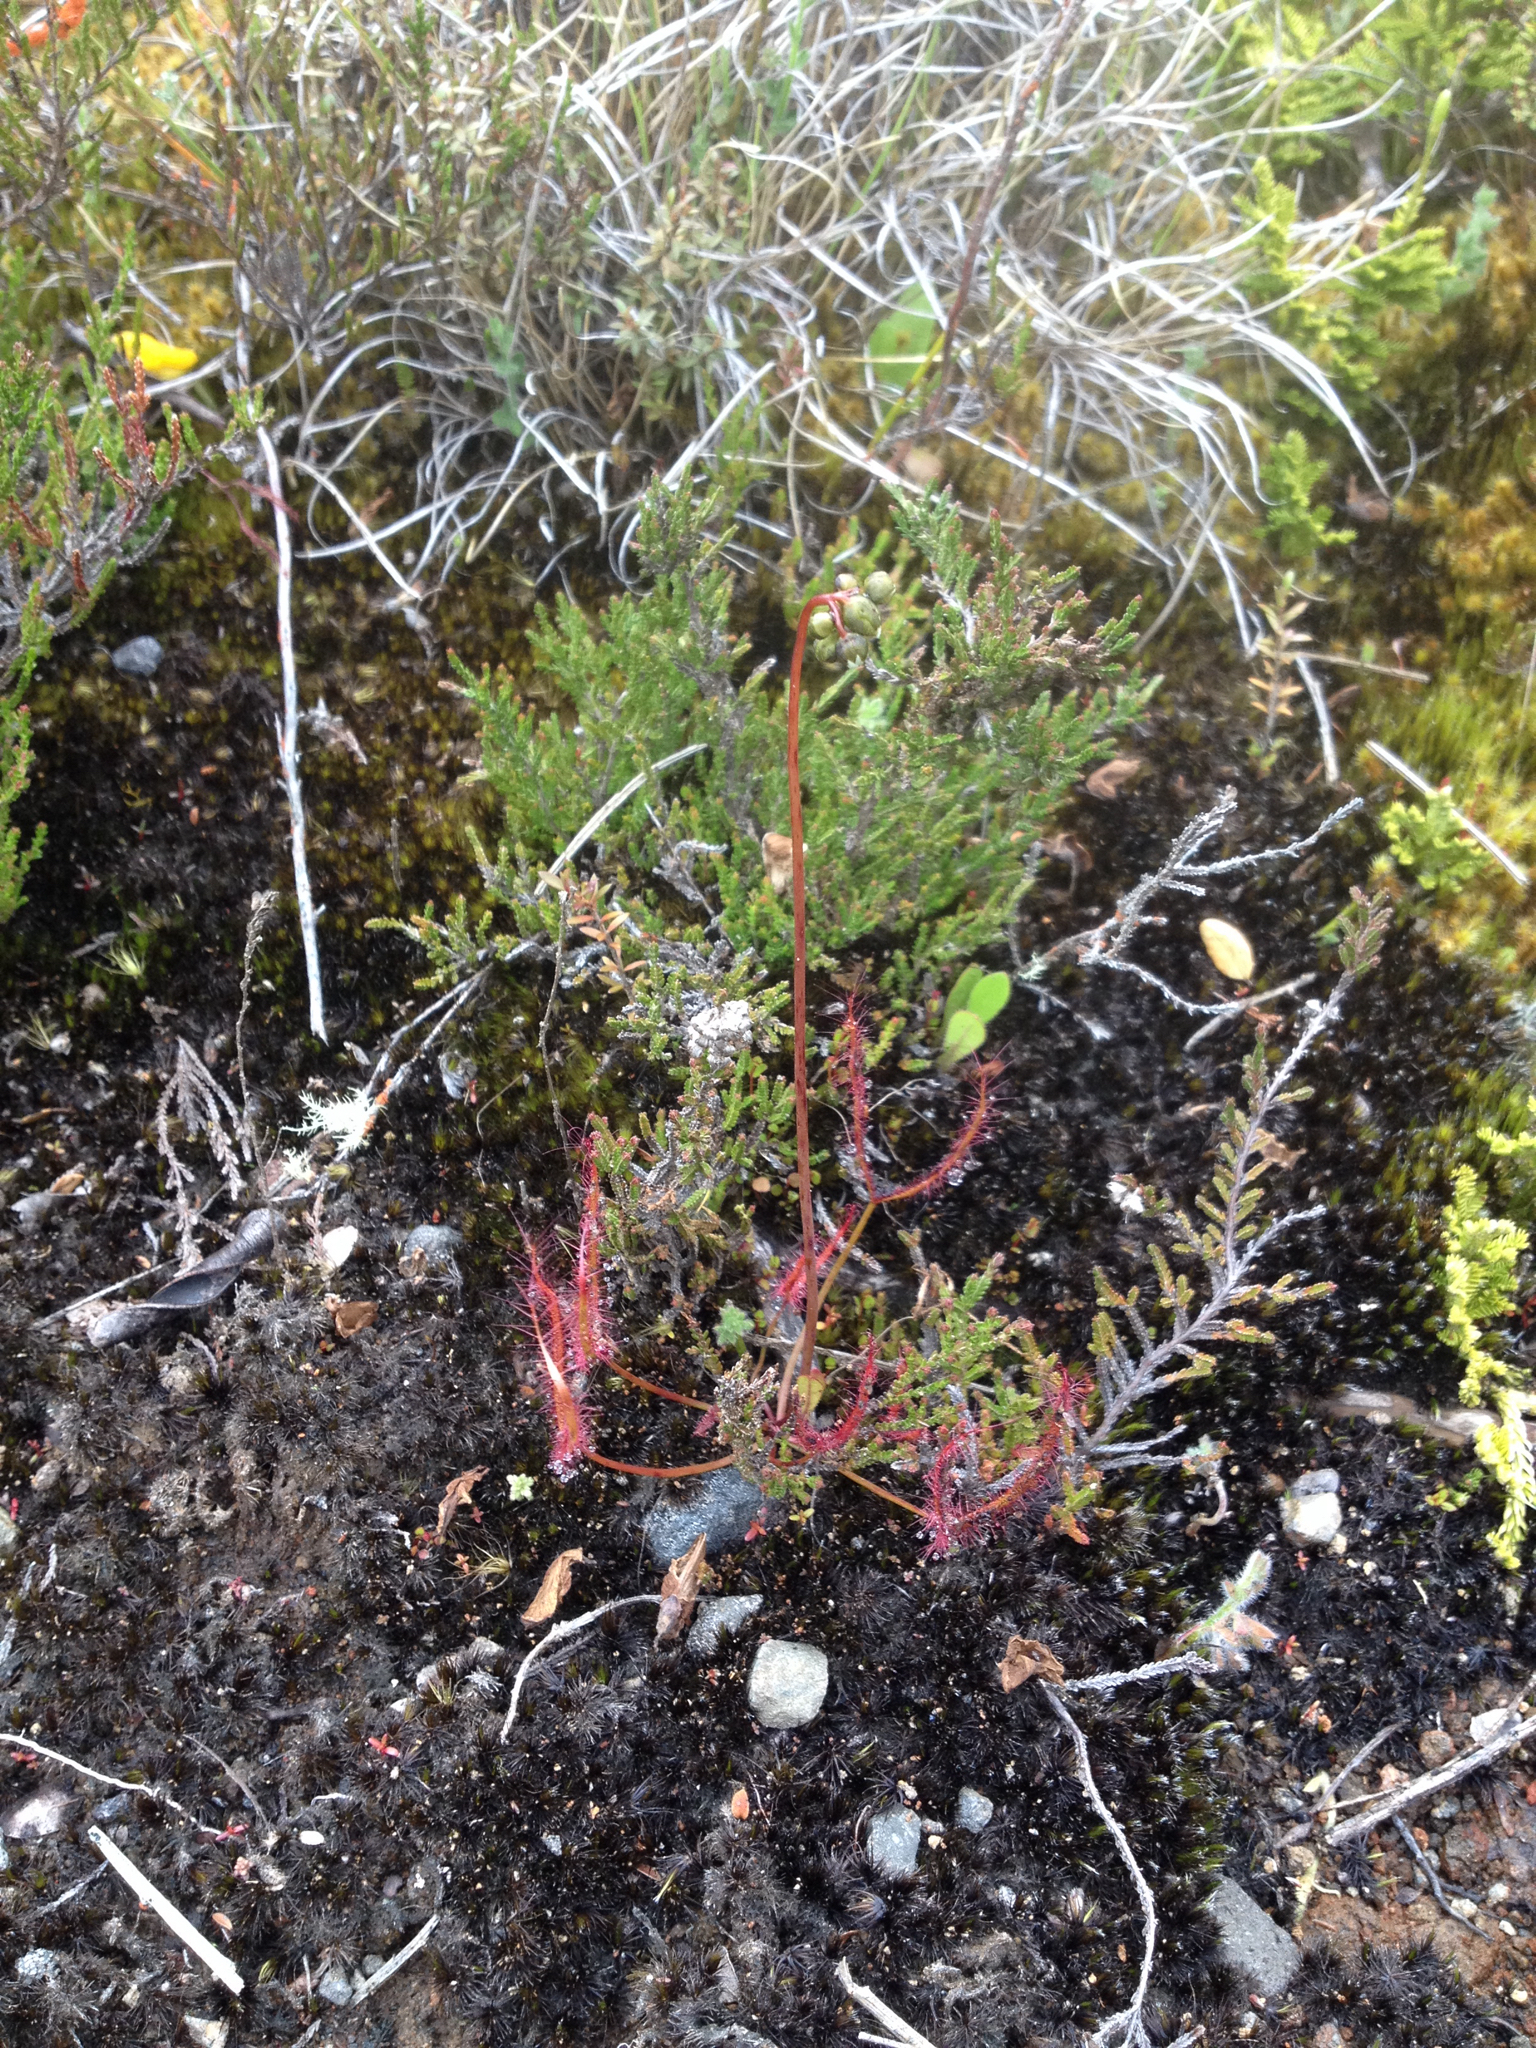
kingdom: Plantae
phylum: Tracheophyta
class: Magnoliopsida
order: Caryophyllales
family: Droseraceae
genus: Drosera
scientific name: Drosera binata
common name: Forked sundew
